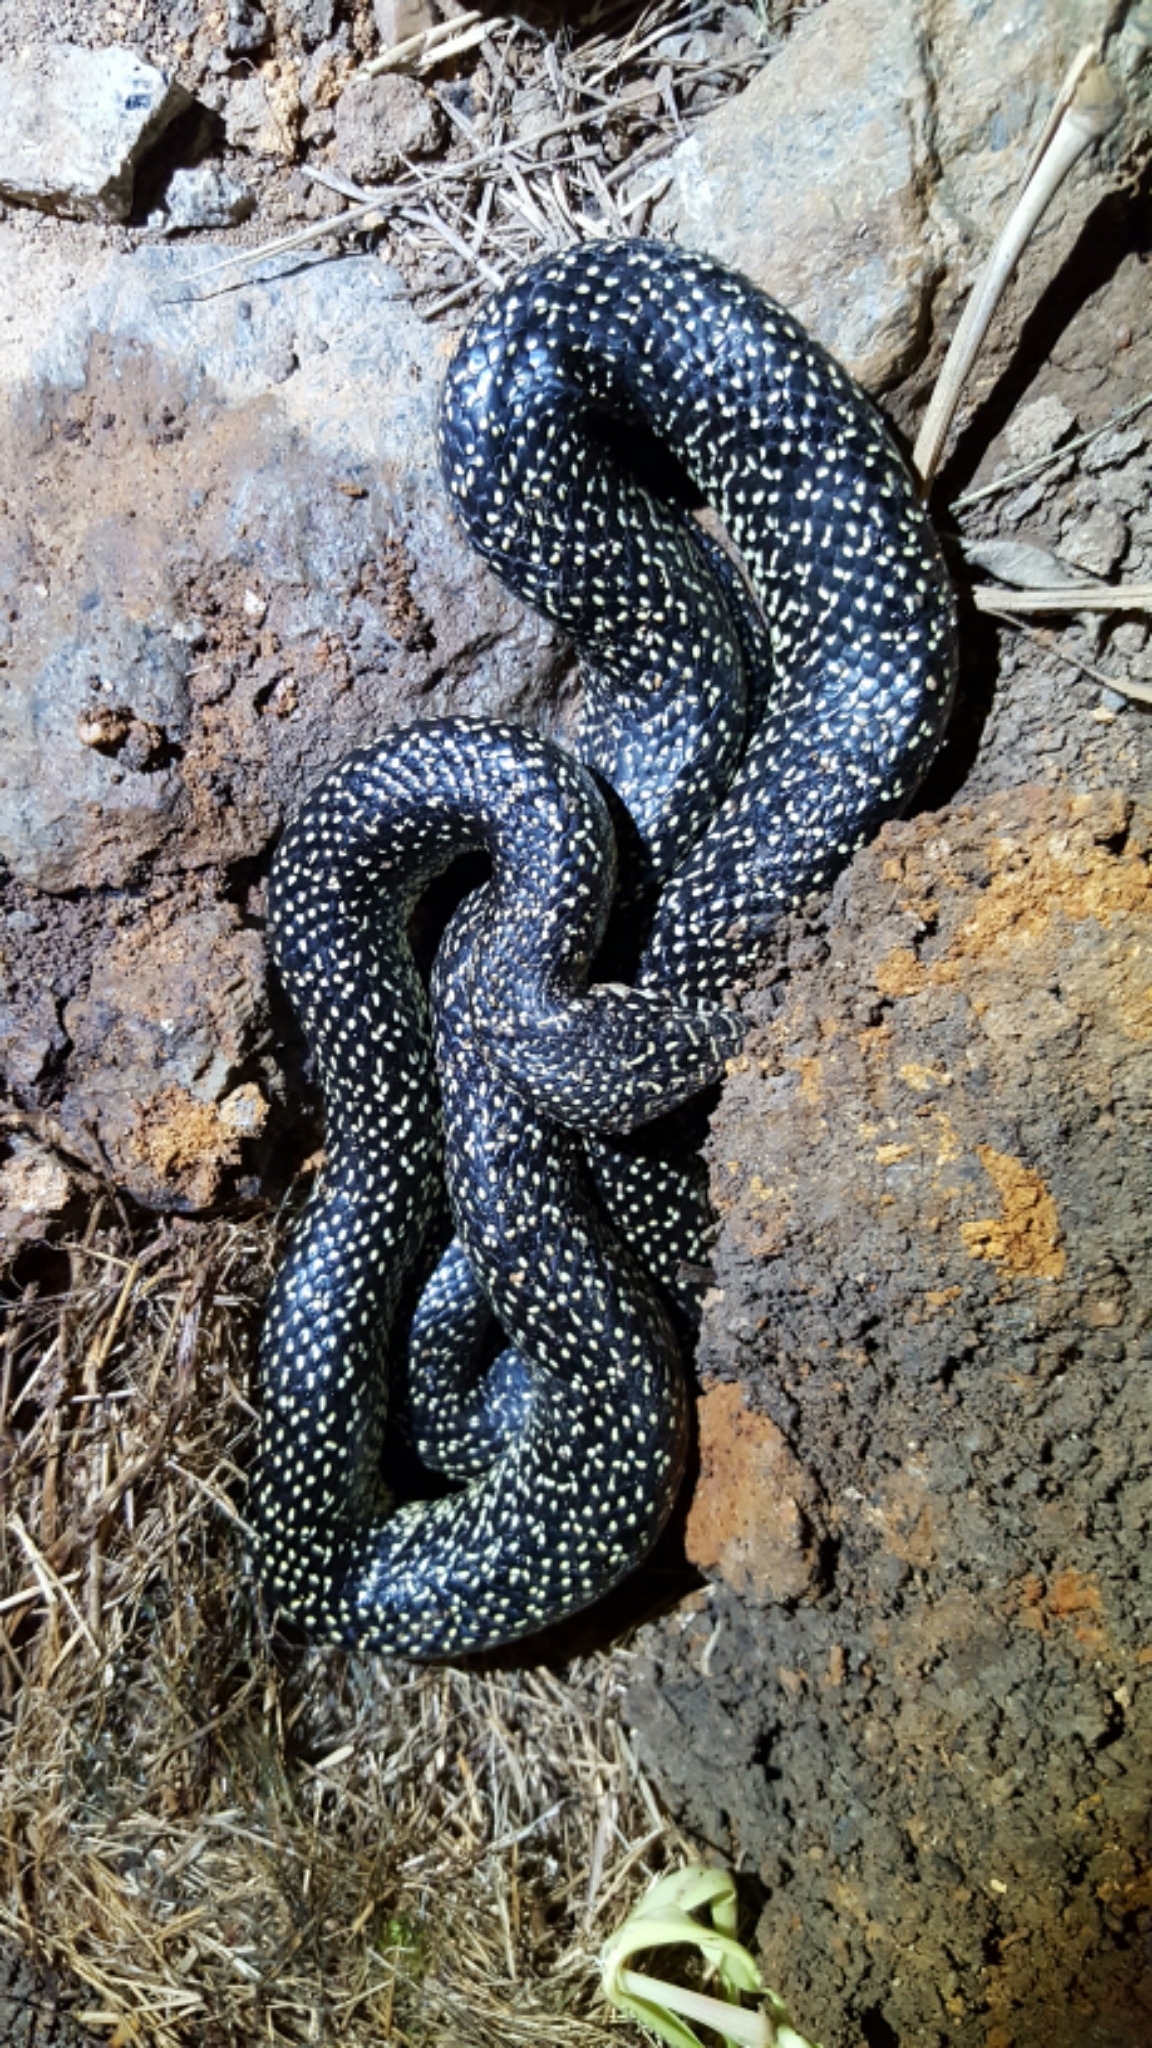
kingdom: Animalia
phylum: Chordata
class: Squamata
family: Colubridae
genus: Lampropeltis
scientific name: Lampropeltis holbrooki
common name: Speckled kingsnake
